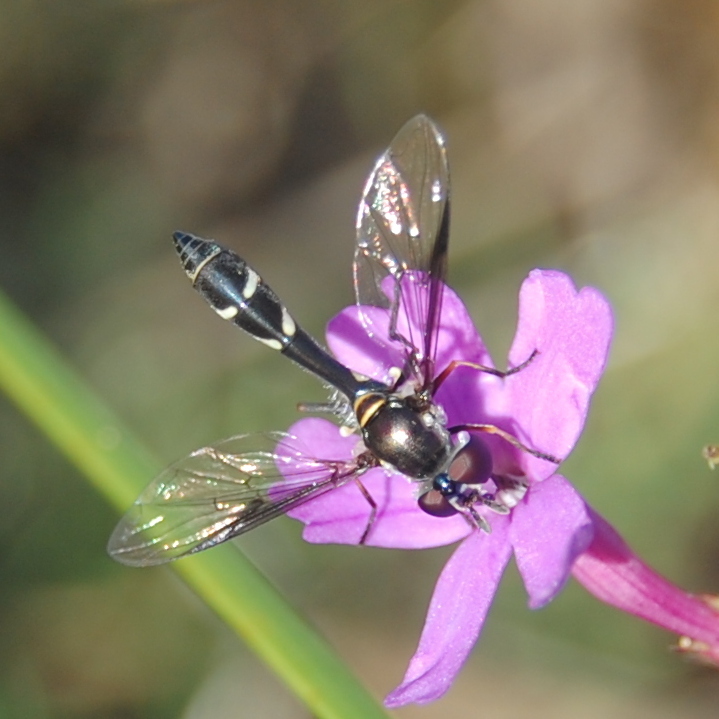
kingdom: Animalia
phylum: Arthropoda
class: Insecta
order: Diptera
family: Syrphidae
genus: Dioprosopa
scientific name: Dioprosopa clavatus
